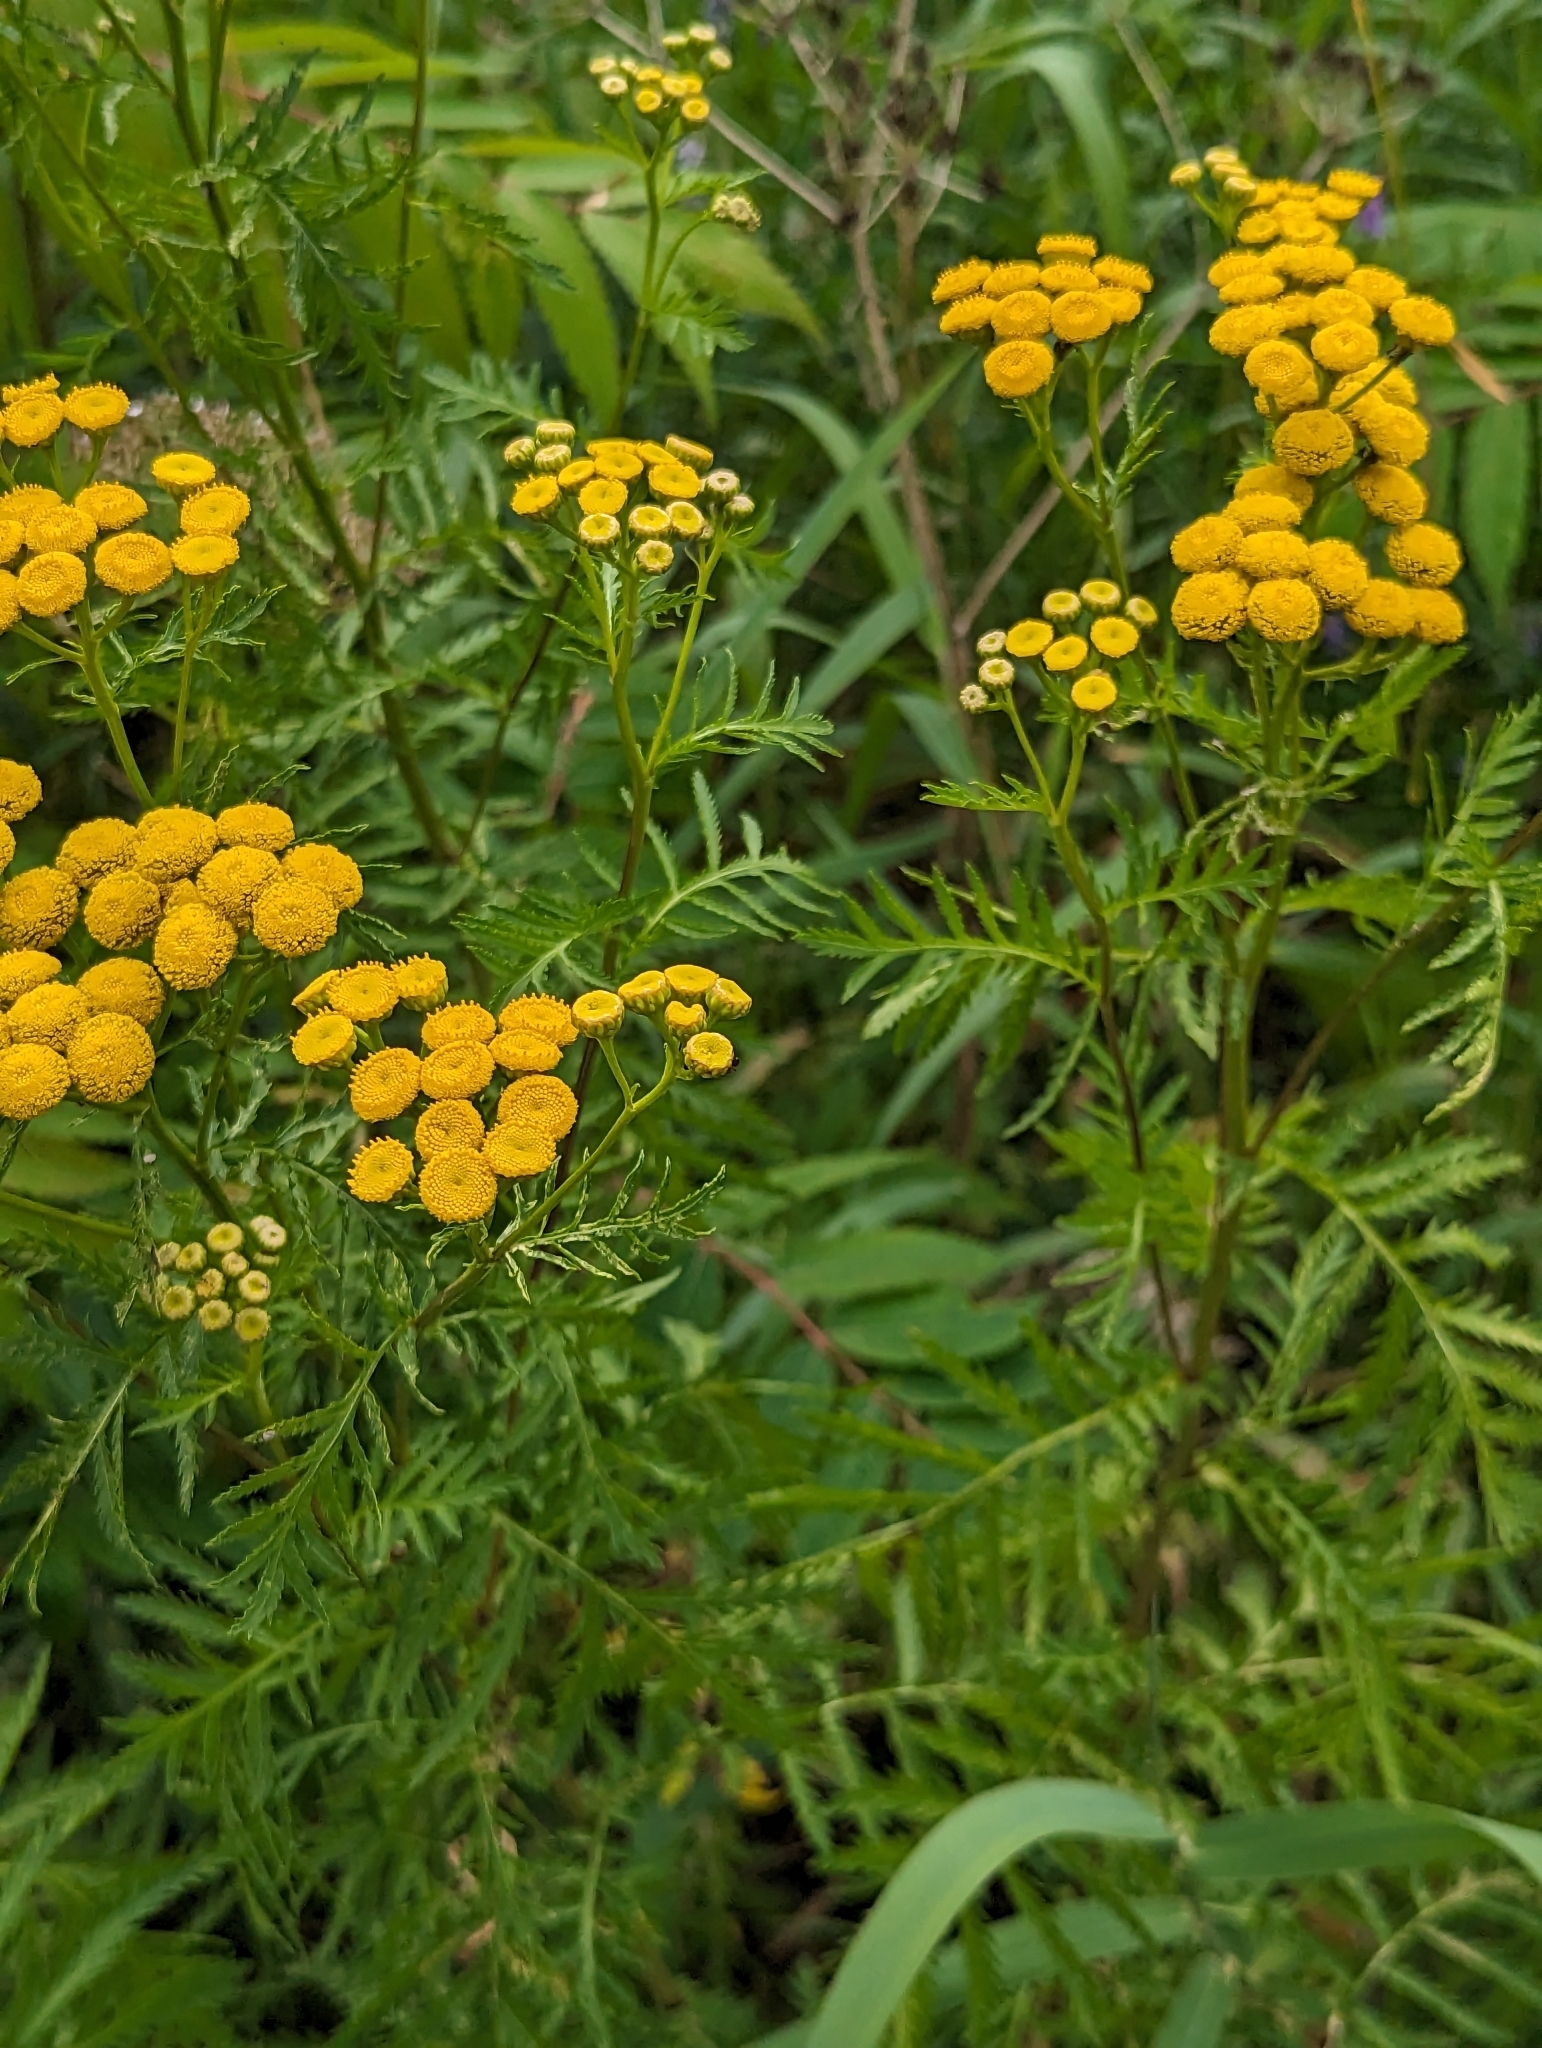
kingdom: Plantae
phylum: Tracheophyta
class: Magnoliopsida
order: Asterales
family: Asteraceae
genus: Tanacetum
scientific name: Tanacetum vulgare
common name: Common tansy
